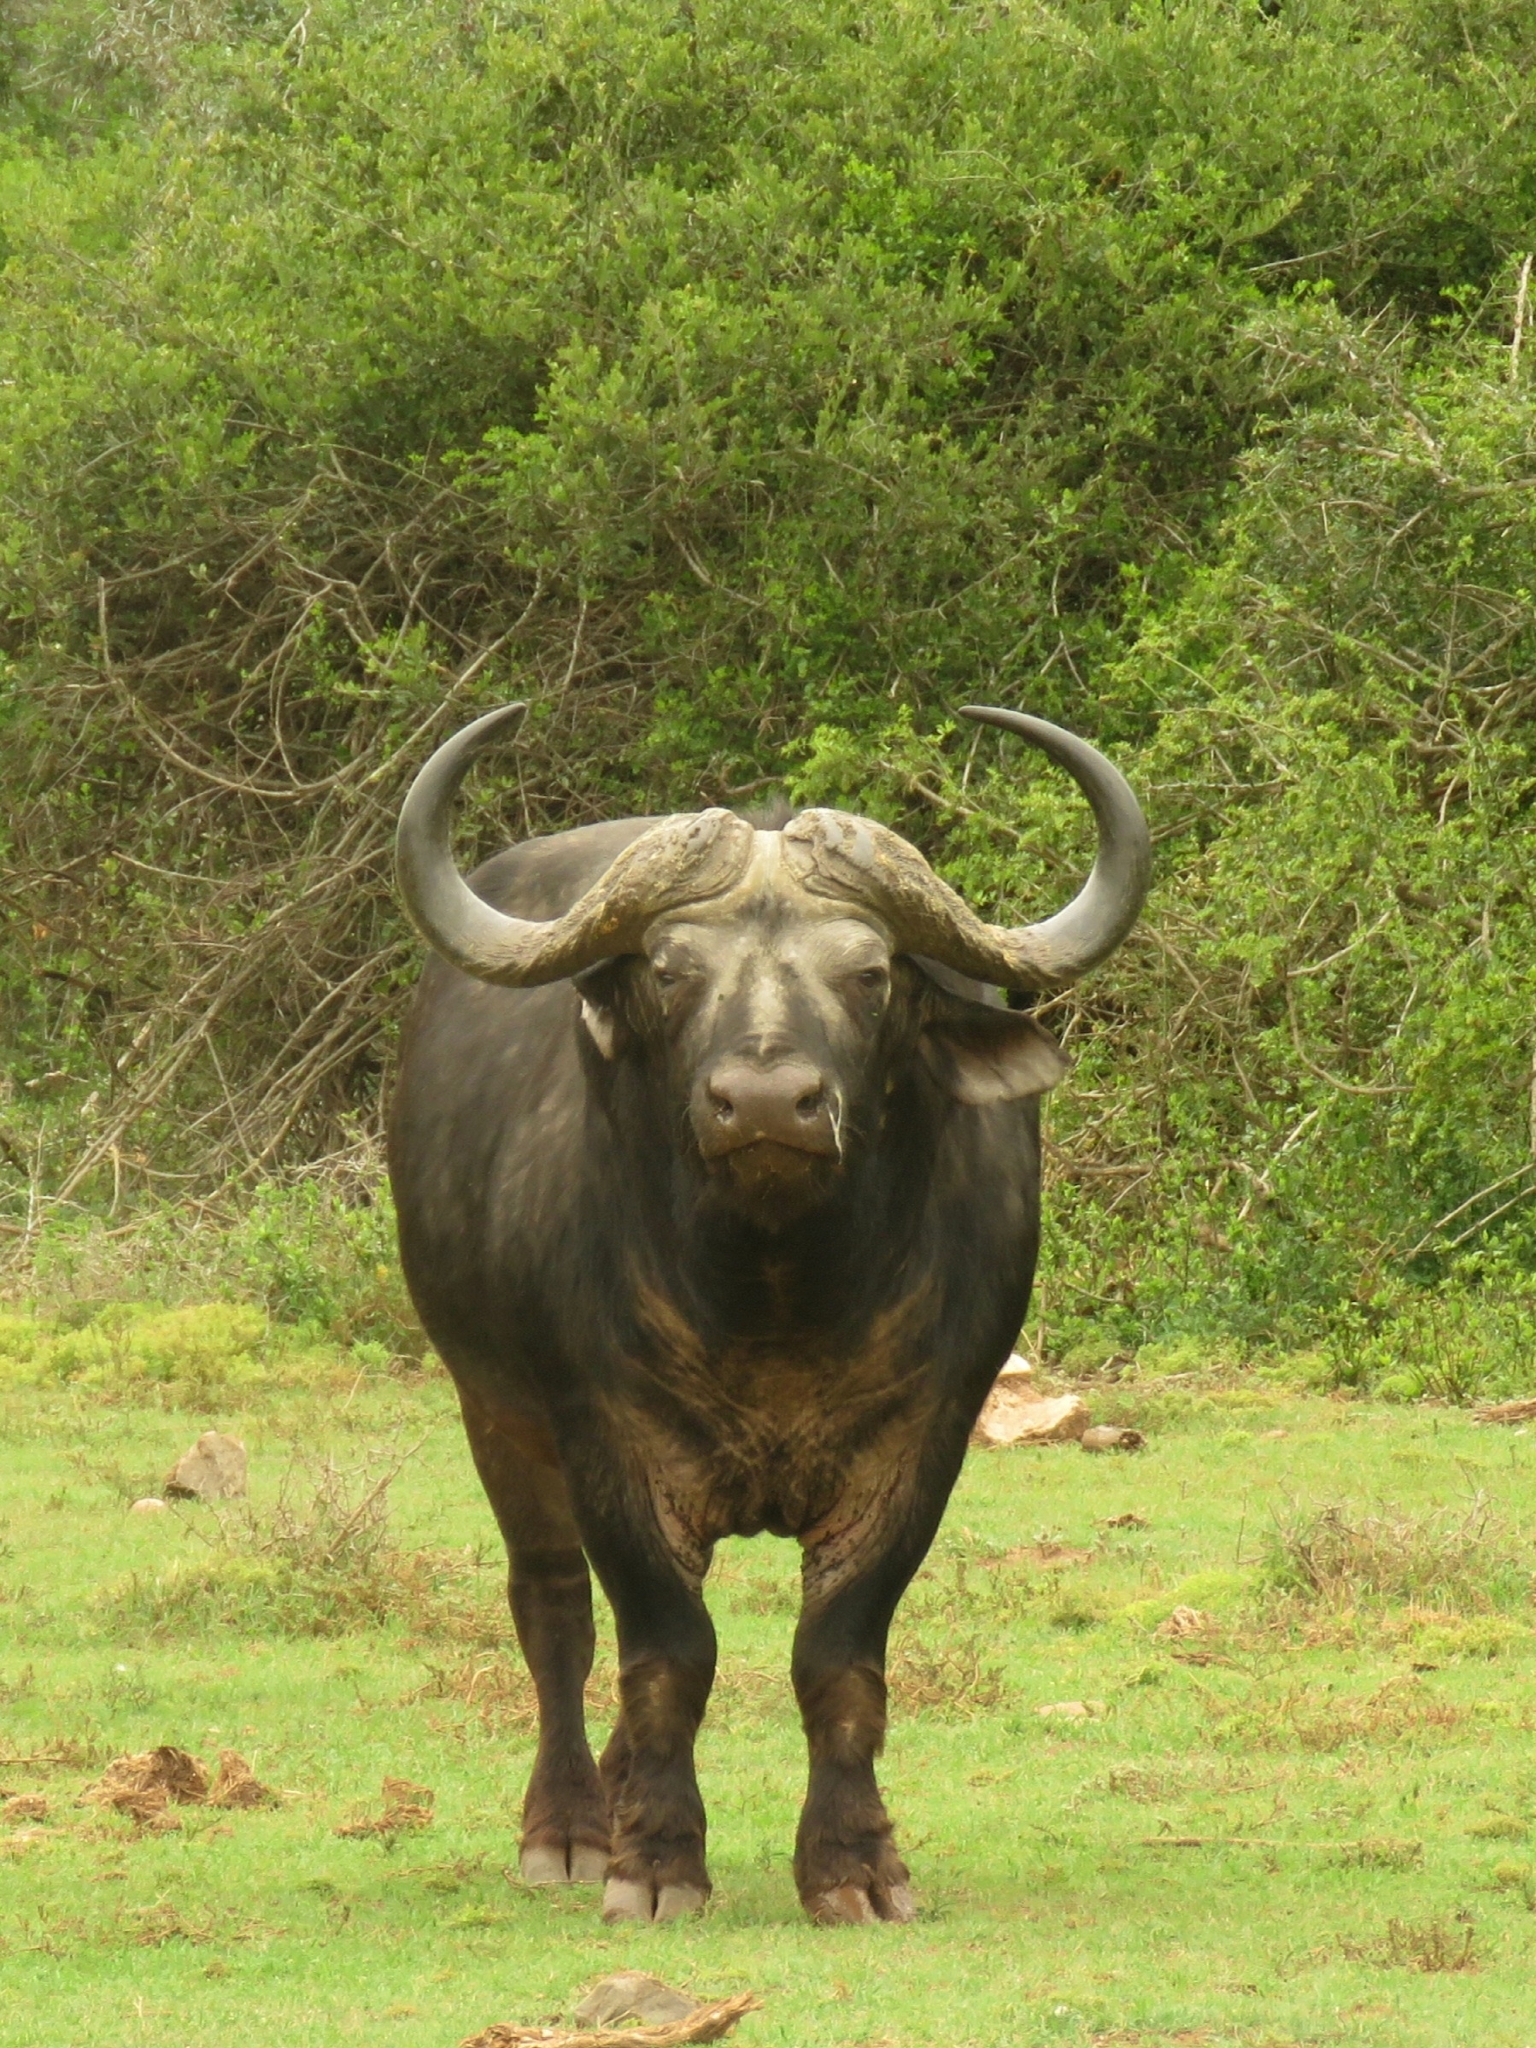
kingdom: Animalia
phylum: Chordata
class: Mammalia
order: Artiodactyla
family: Bovidae
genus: Syncerus
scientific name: Syncerus caffer
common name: African buffalo
